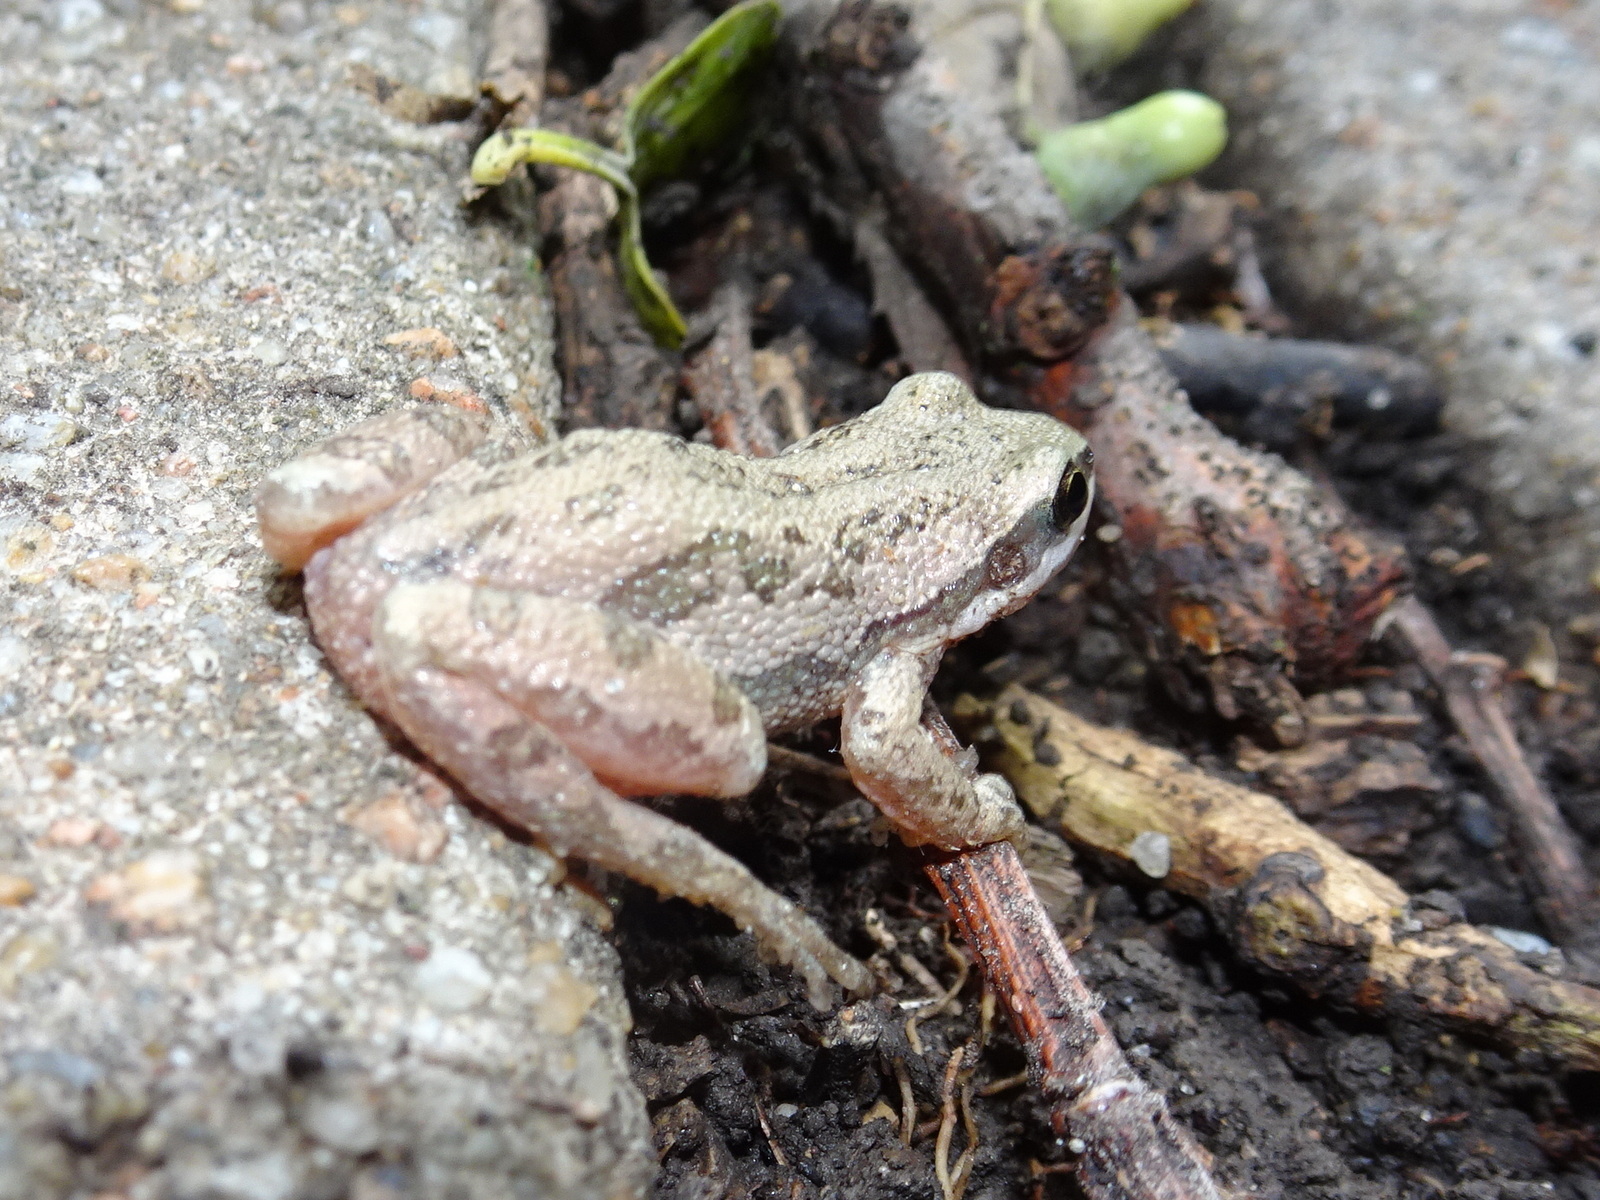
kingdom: Animalia
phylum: Chordata
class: Amphibia
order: Anura
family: Hylidae
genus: Pseudacris
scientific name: Pseudacris maculata
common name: Boreal chorus frog
